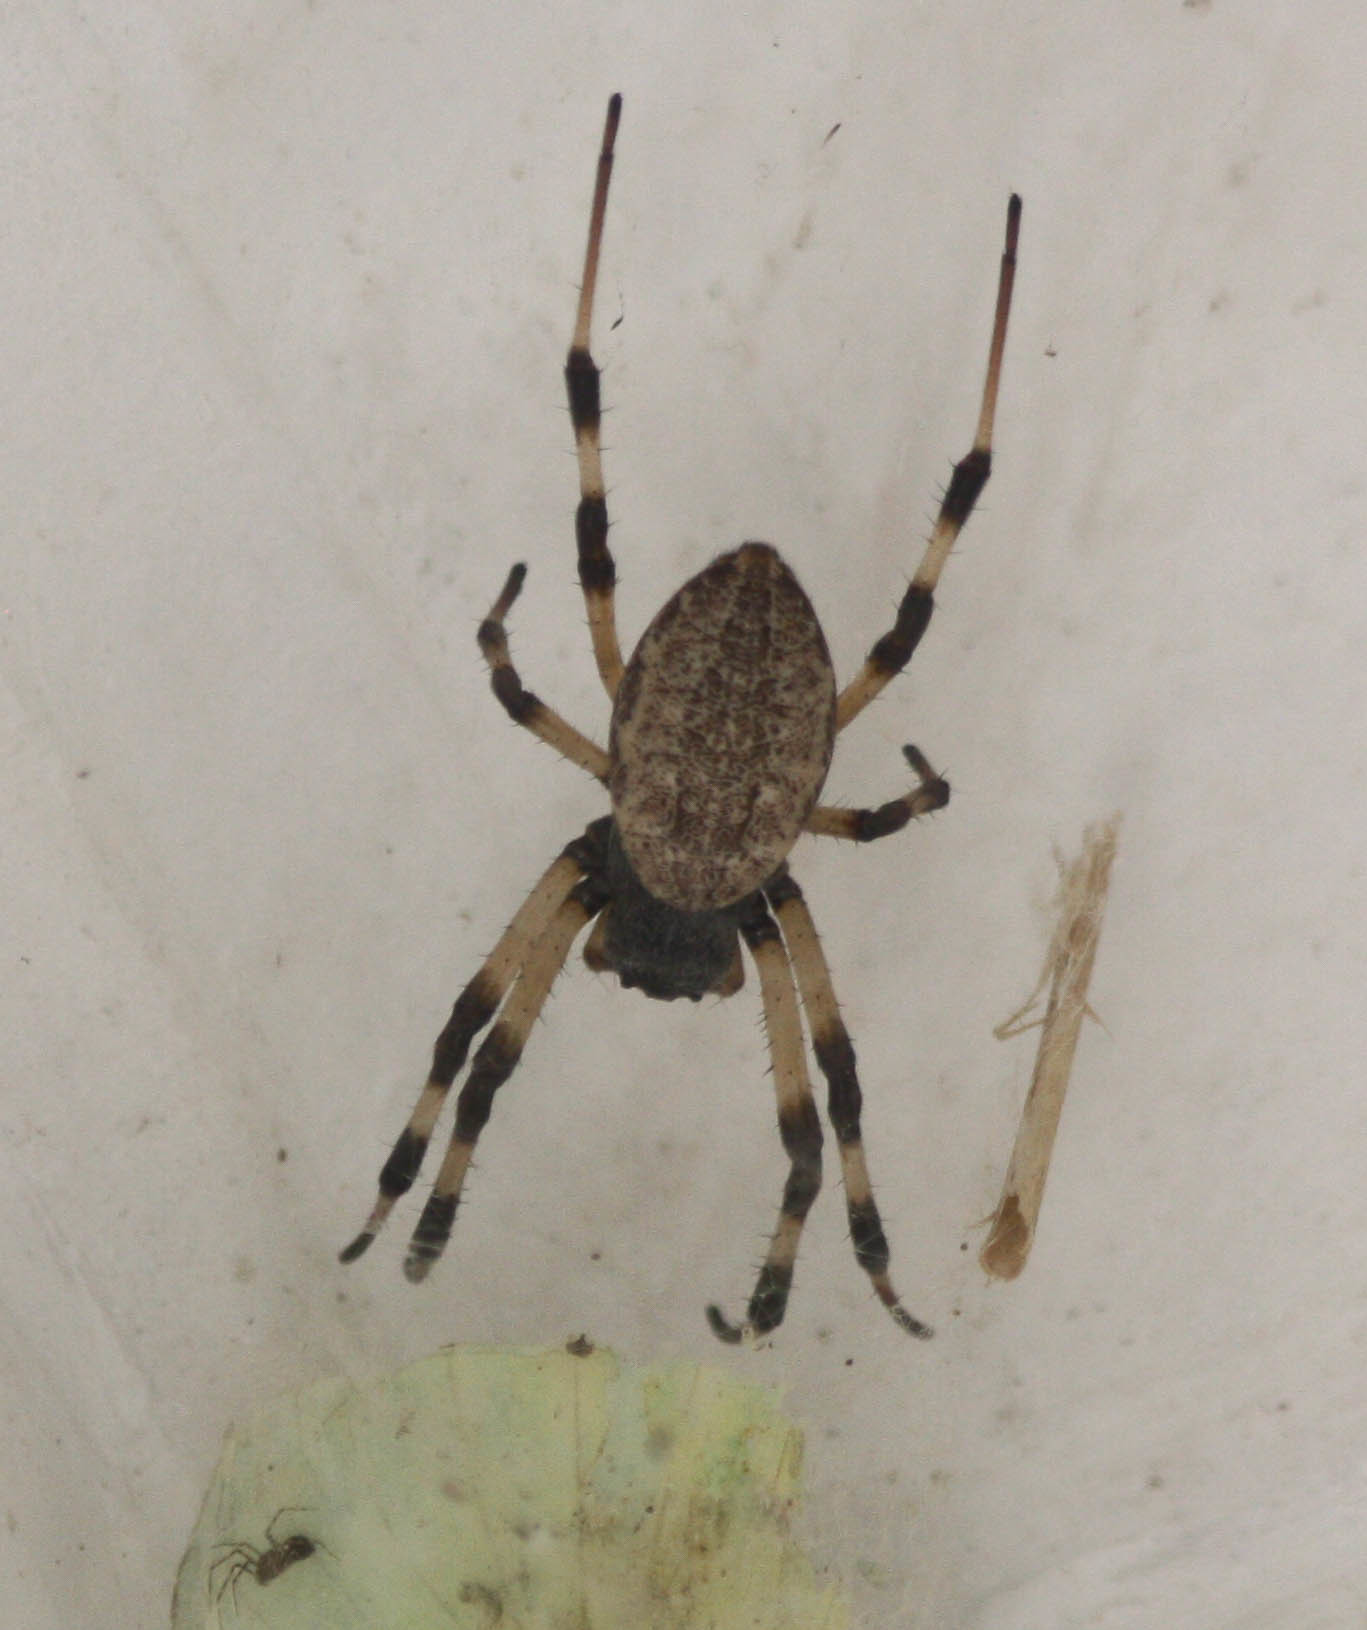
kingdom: Animalia
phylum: Arthropoda
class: Arachnida
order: Araneae
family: Araneidae
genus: Nephilengys
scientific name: Nephilengys malabarensis
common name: Asian hermit spider
